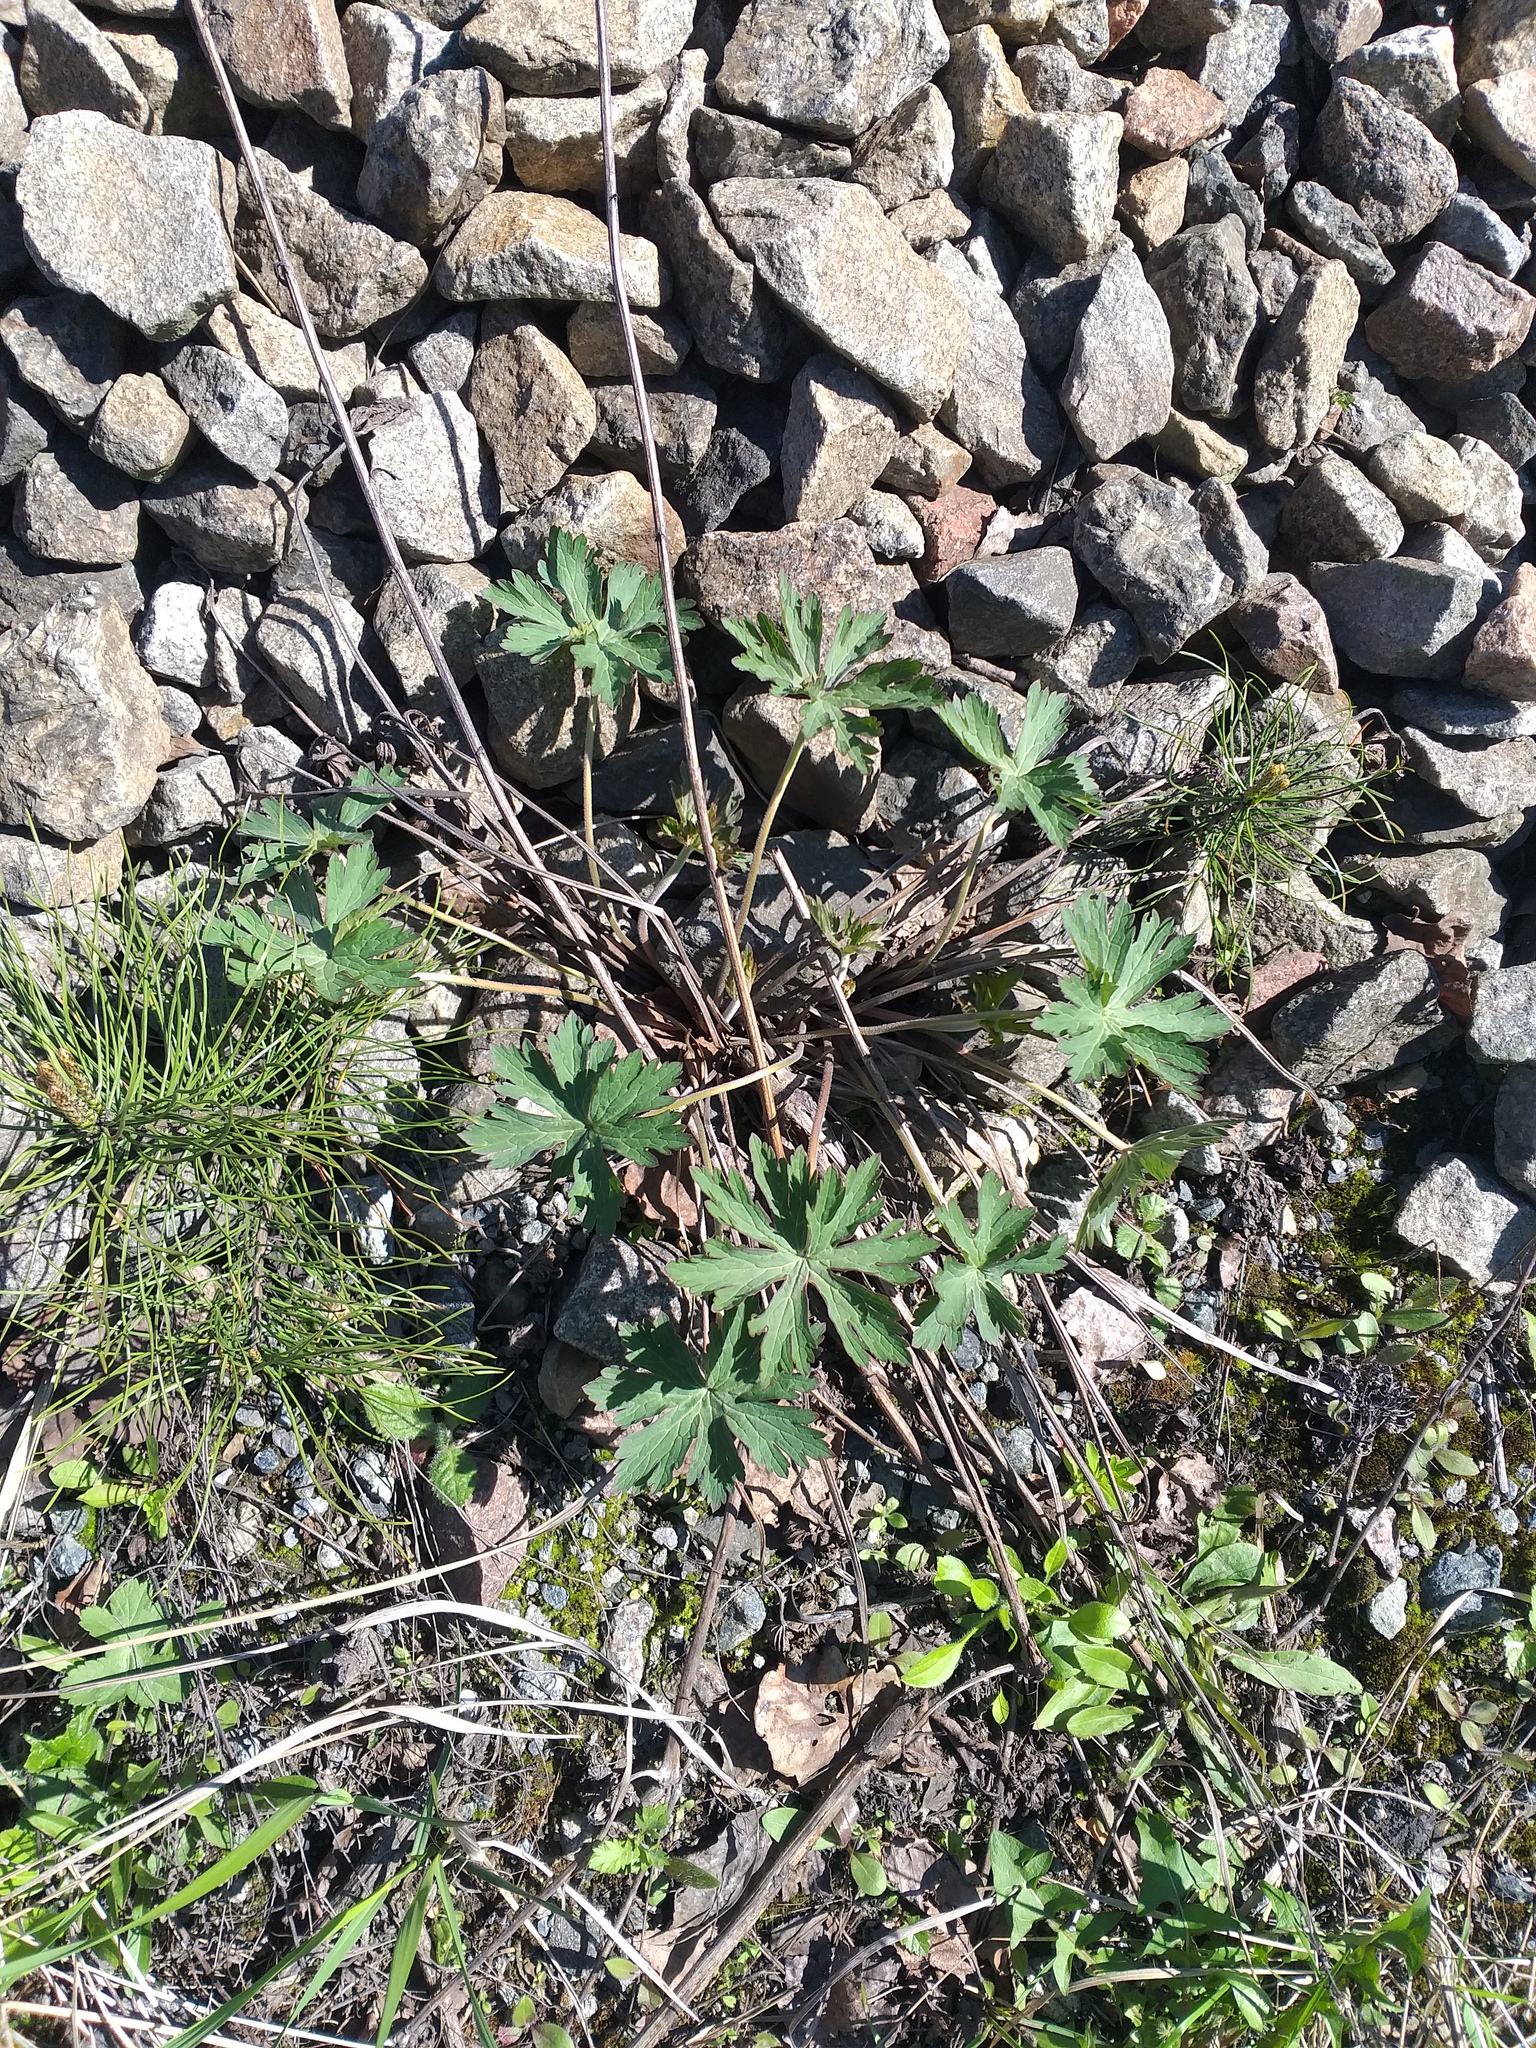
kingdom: Plantae
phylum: Tracheophyta
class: Magnoliopsida
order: Geraniales
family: Geraniaceae
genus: Geranium
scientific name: Geranium pratense
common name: Meadow crane's-bill
